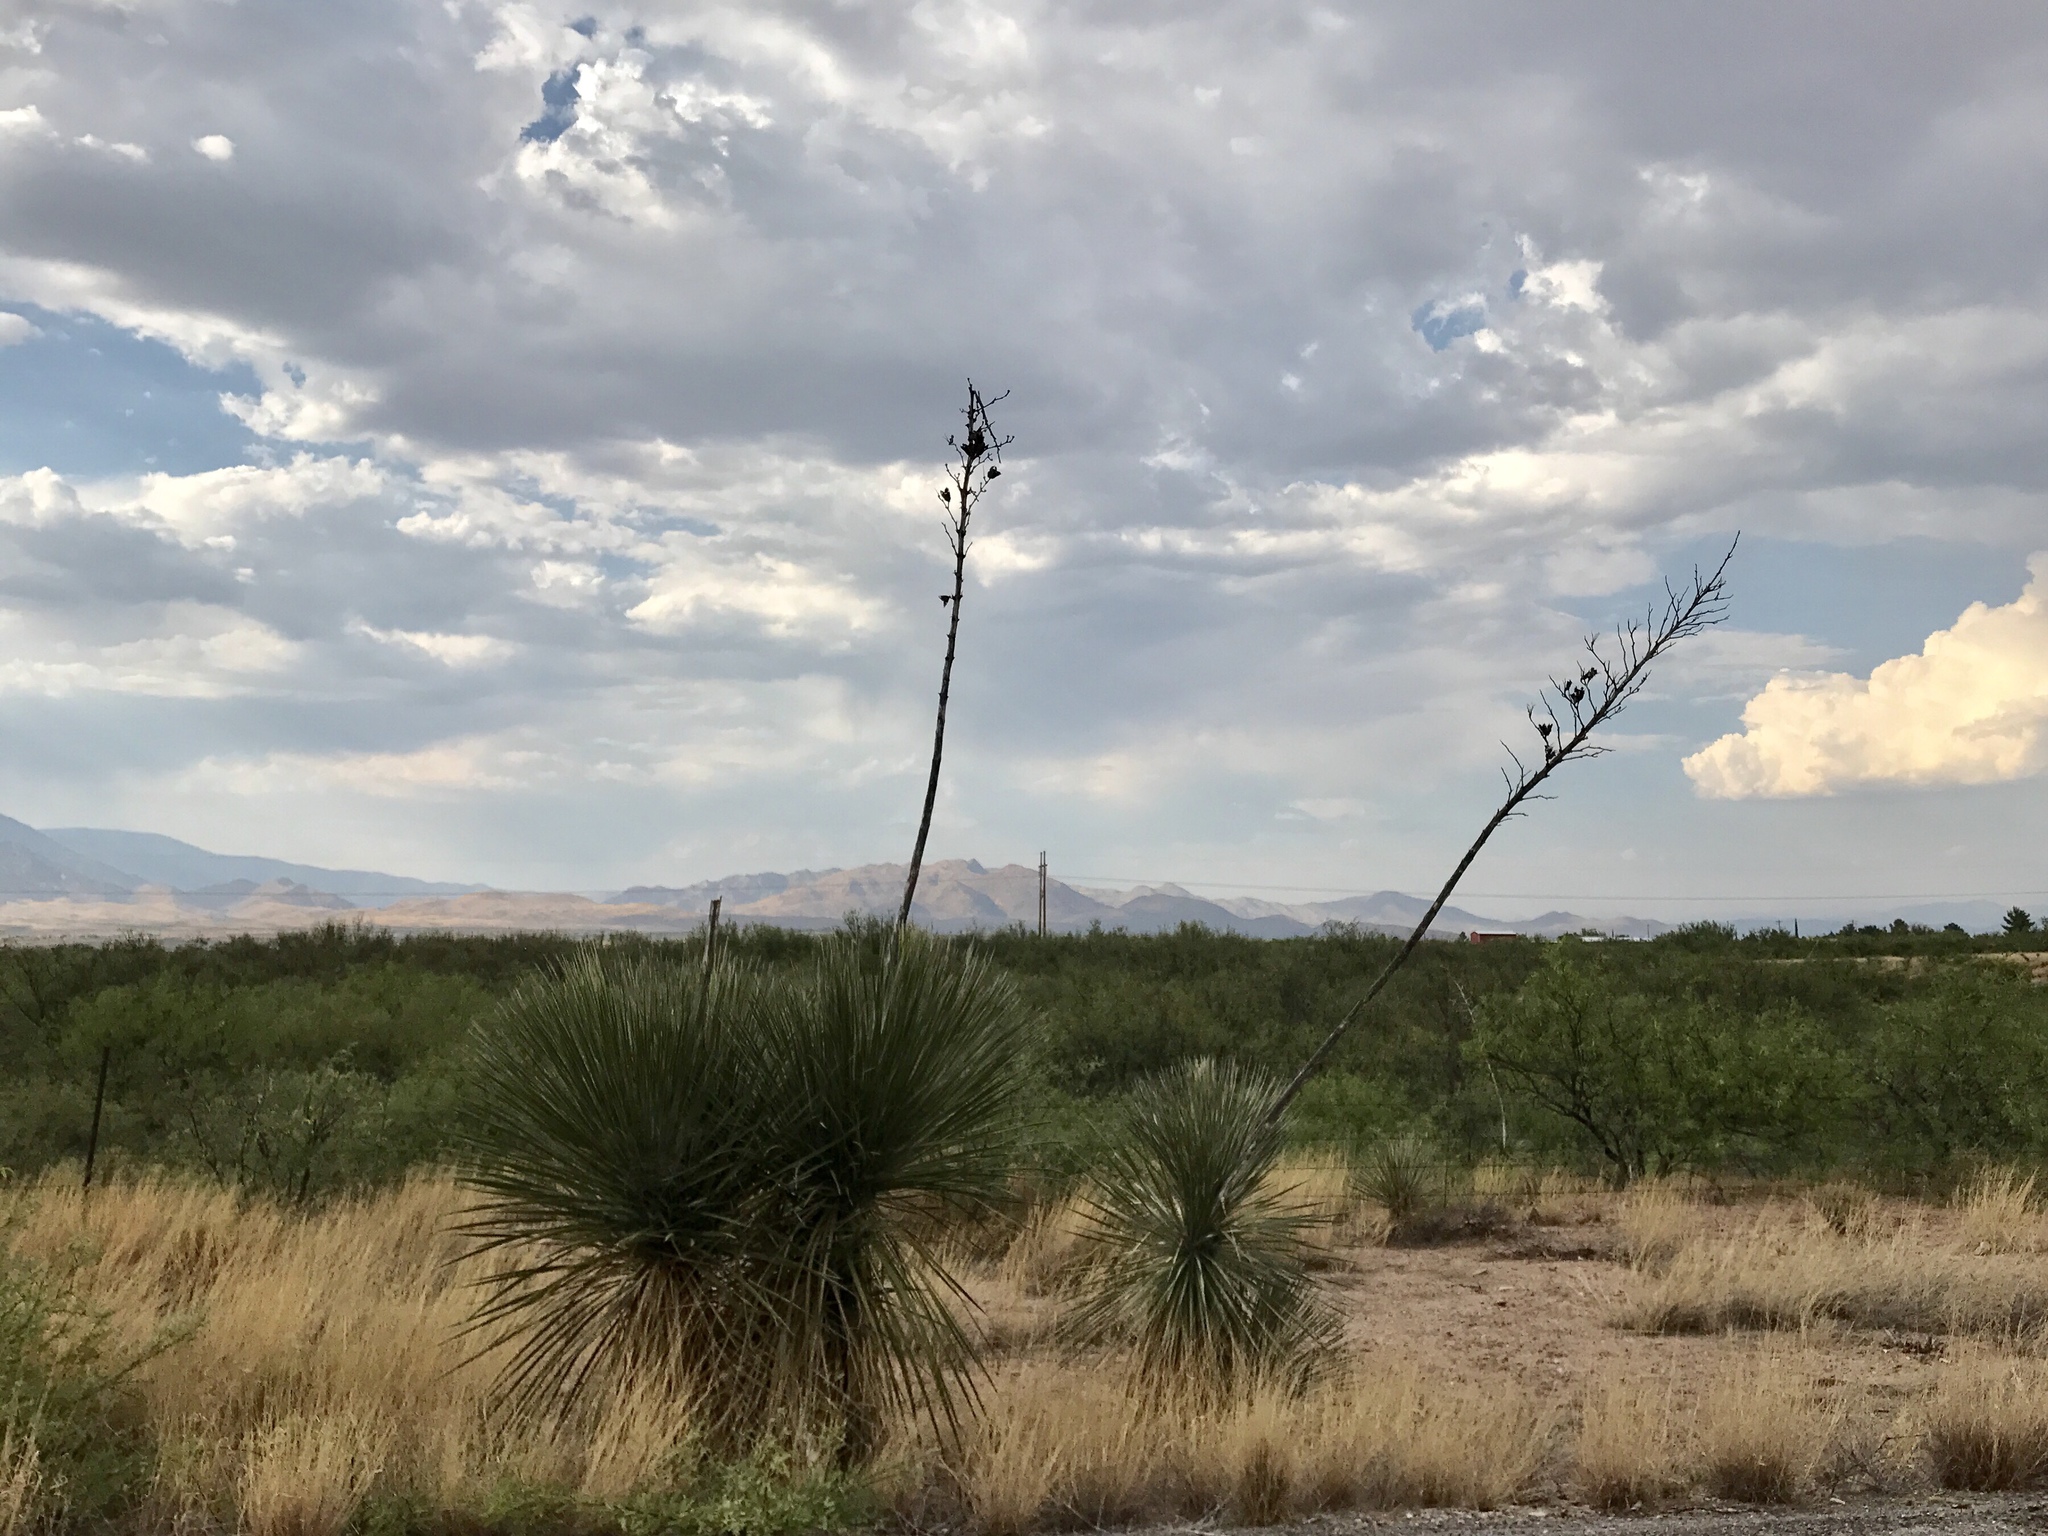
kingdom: Plantae
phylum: Tracheophyta
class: Liliopsida
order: Asparagales
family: Asparagaceae
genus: Yucca
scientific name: Yucca elata
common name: Palmella
